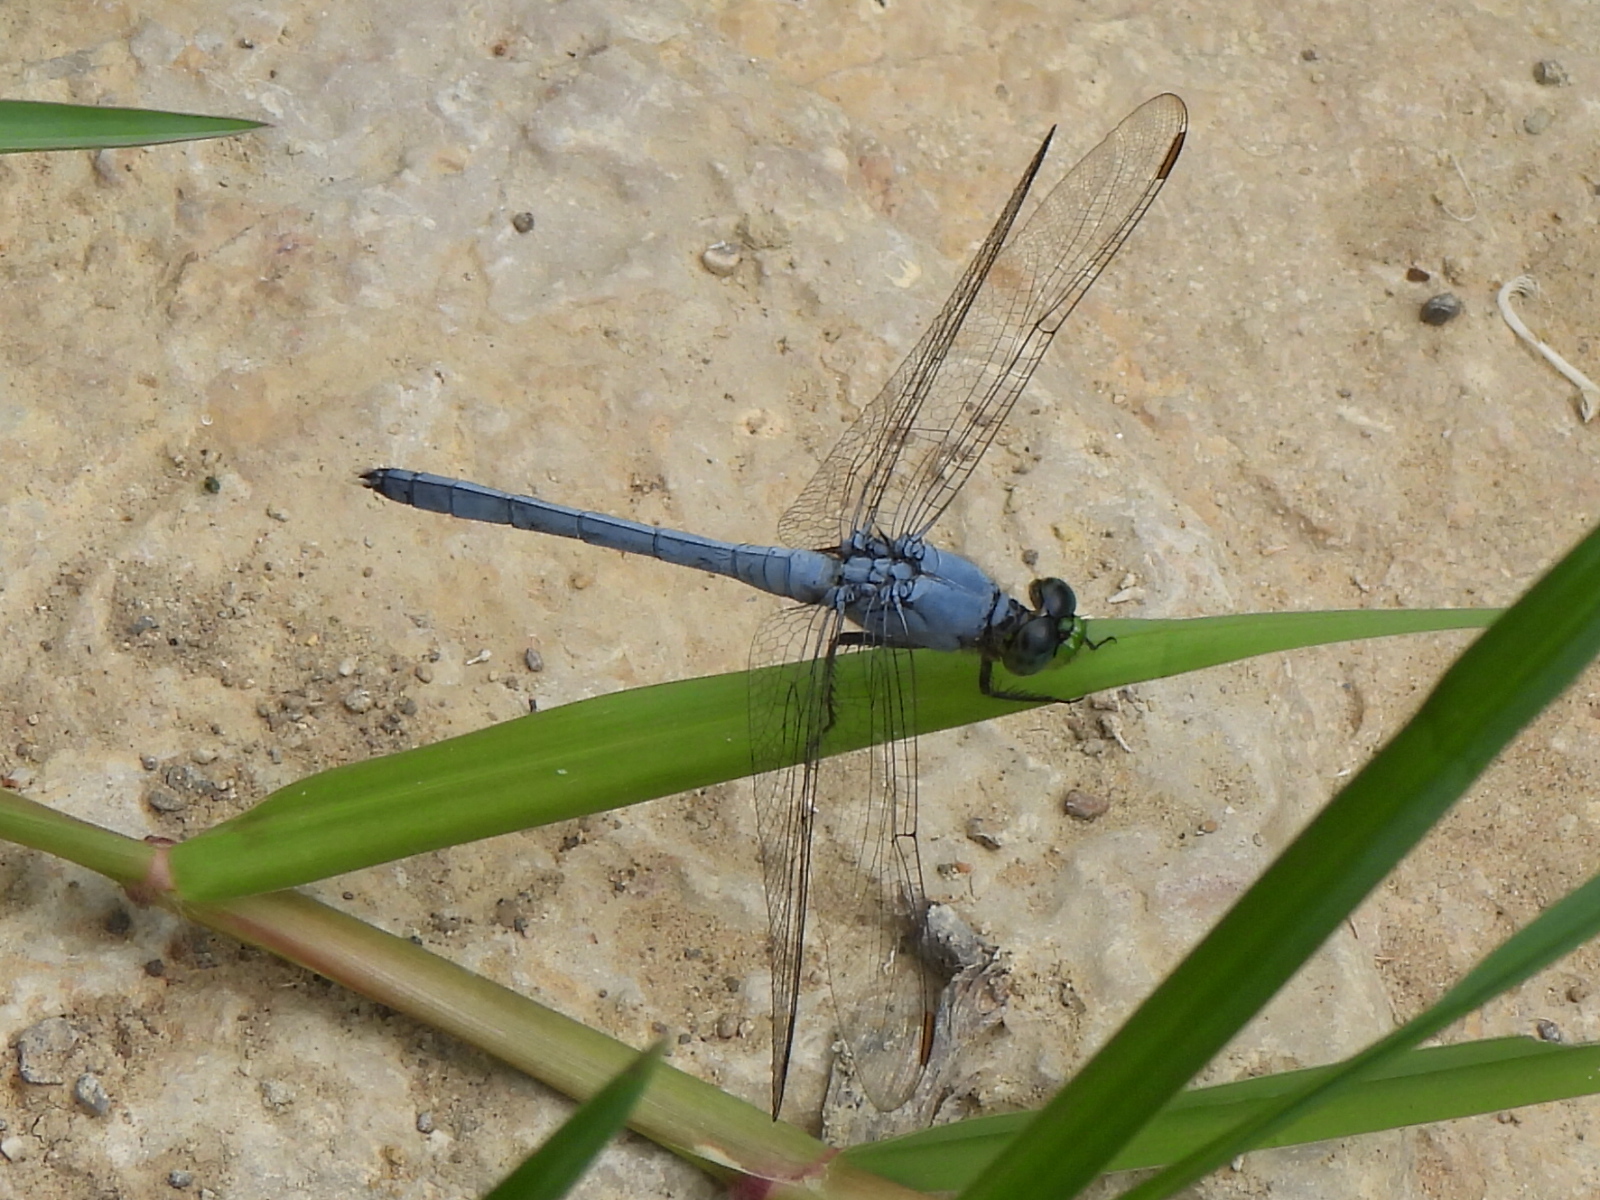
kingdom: Animalia
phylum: Arthropoda
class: Insecta
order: Odonata
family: Libellulidae
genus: Erythemis
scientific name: Erythemis simplicicollis
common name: Eastern pondhawk
